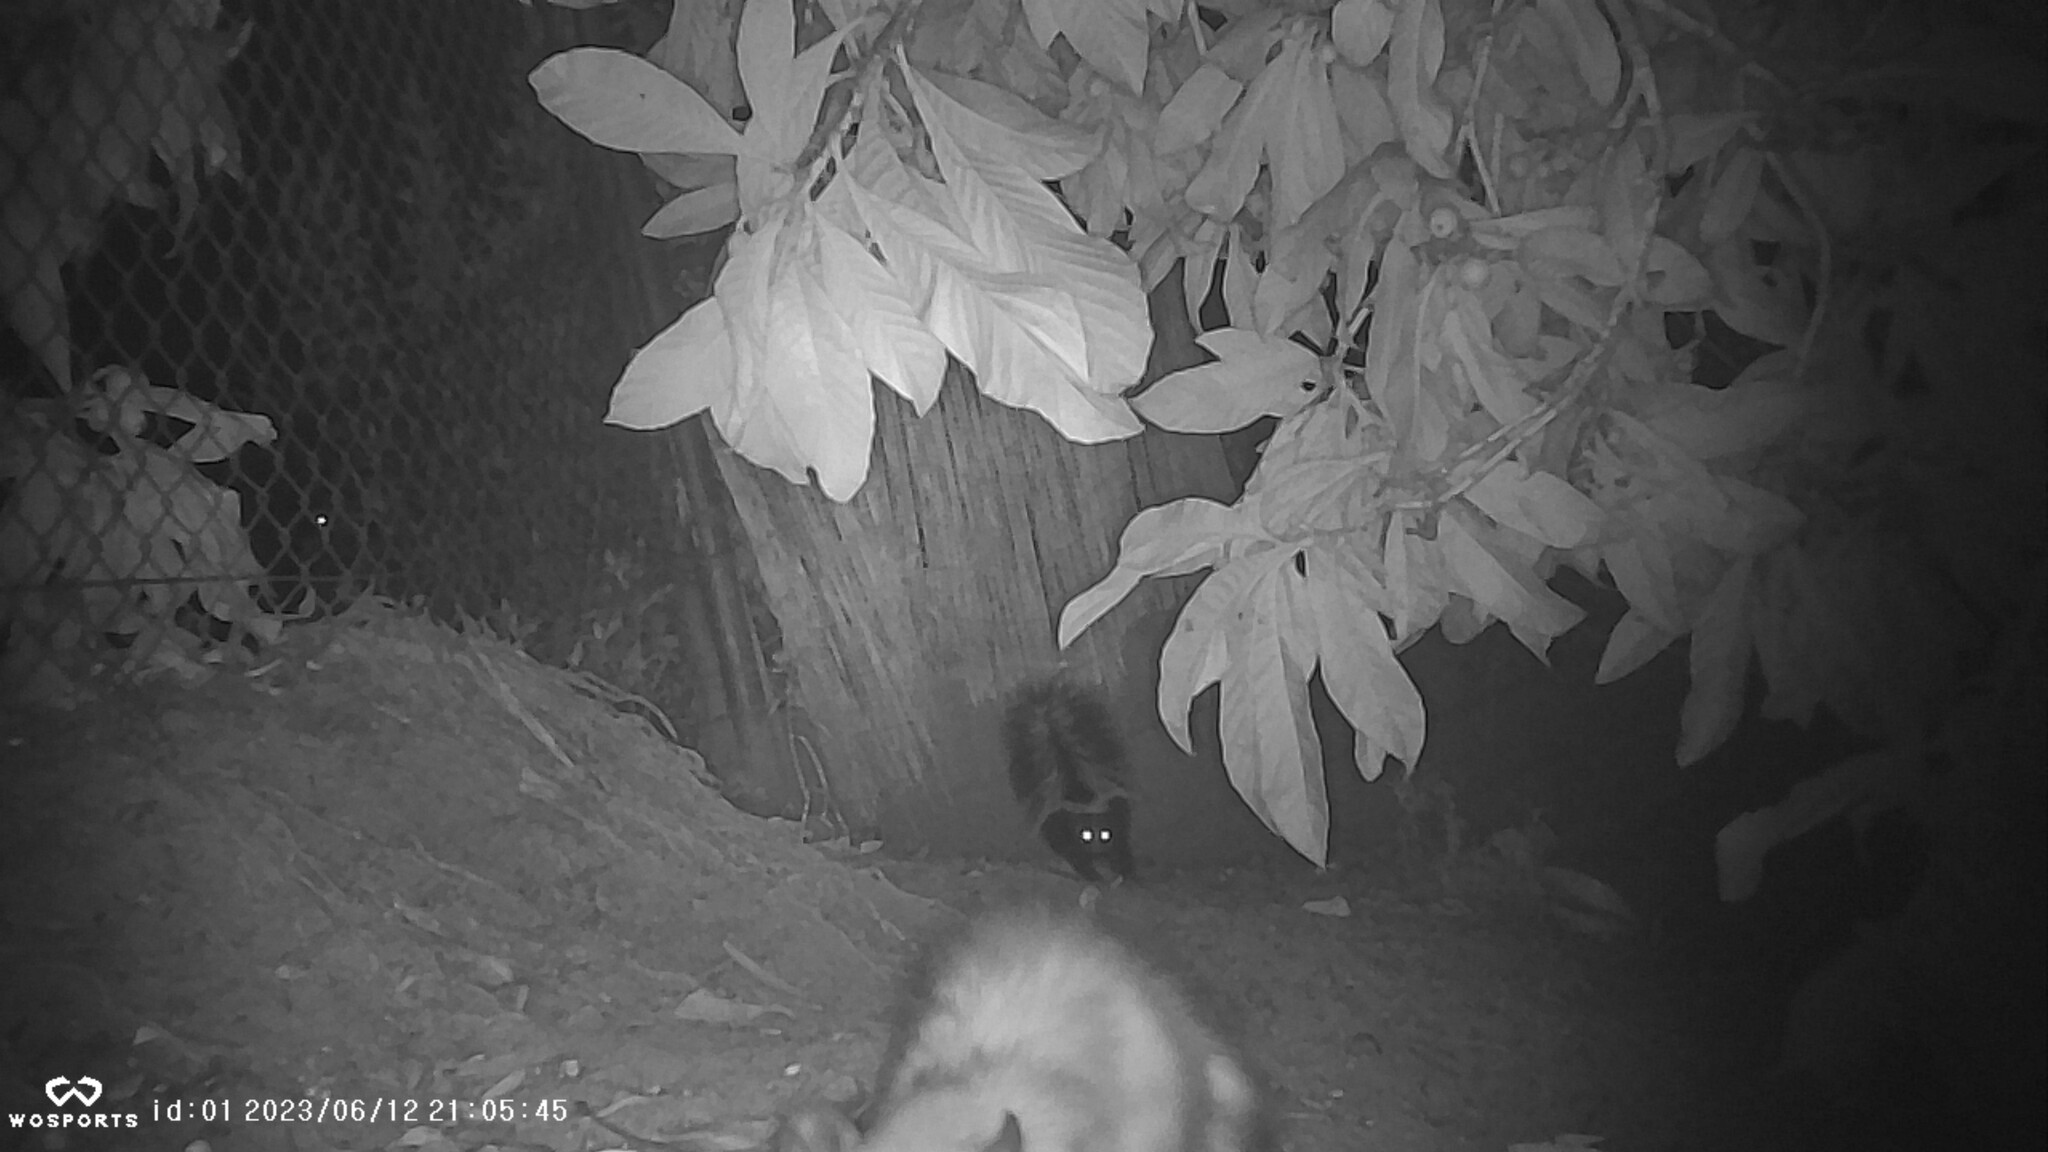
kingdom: Animalia
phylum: Chordata
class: Mammalia
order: Carnivora
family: Mephitidae
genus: Mephitis
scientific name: Mephitis mephitis
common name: Striped skunk
